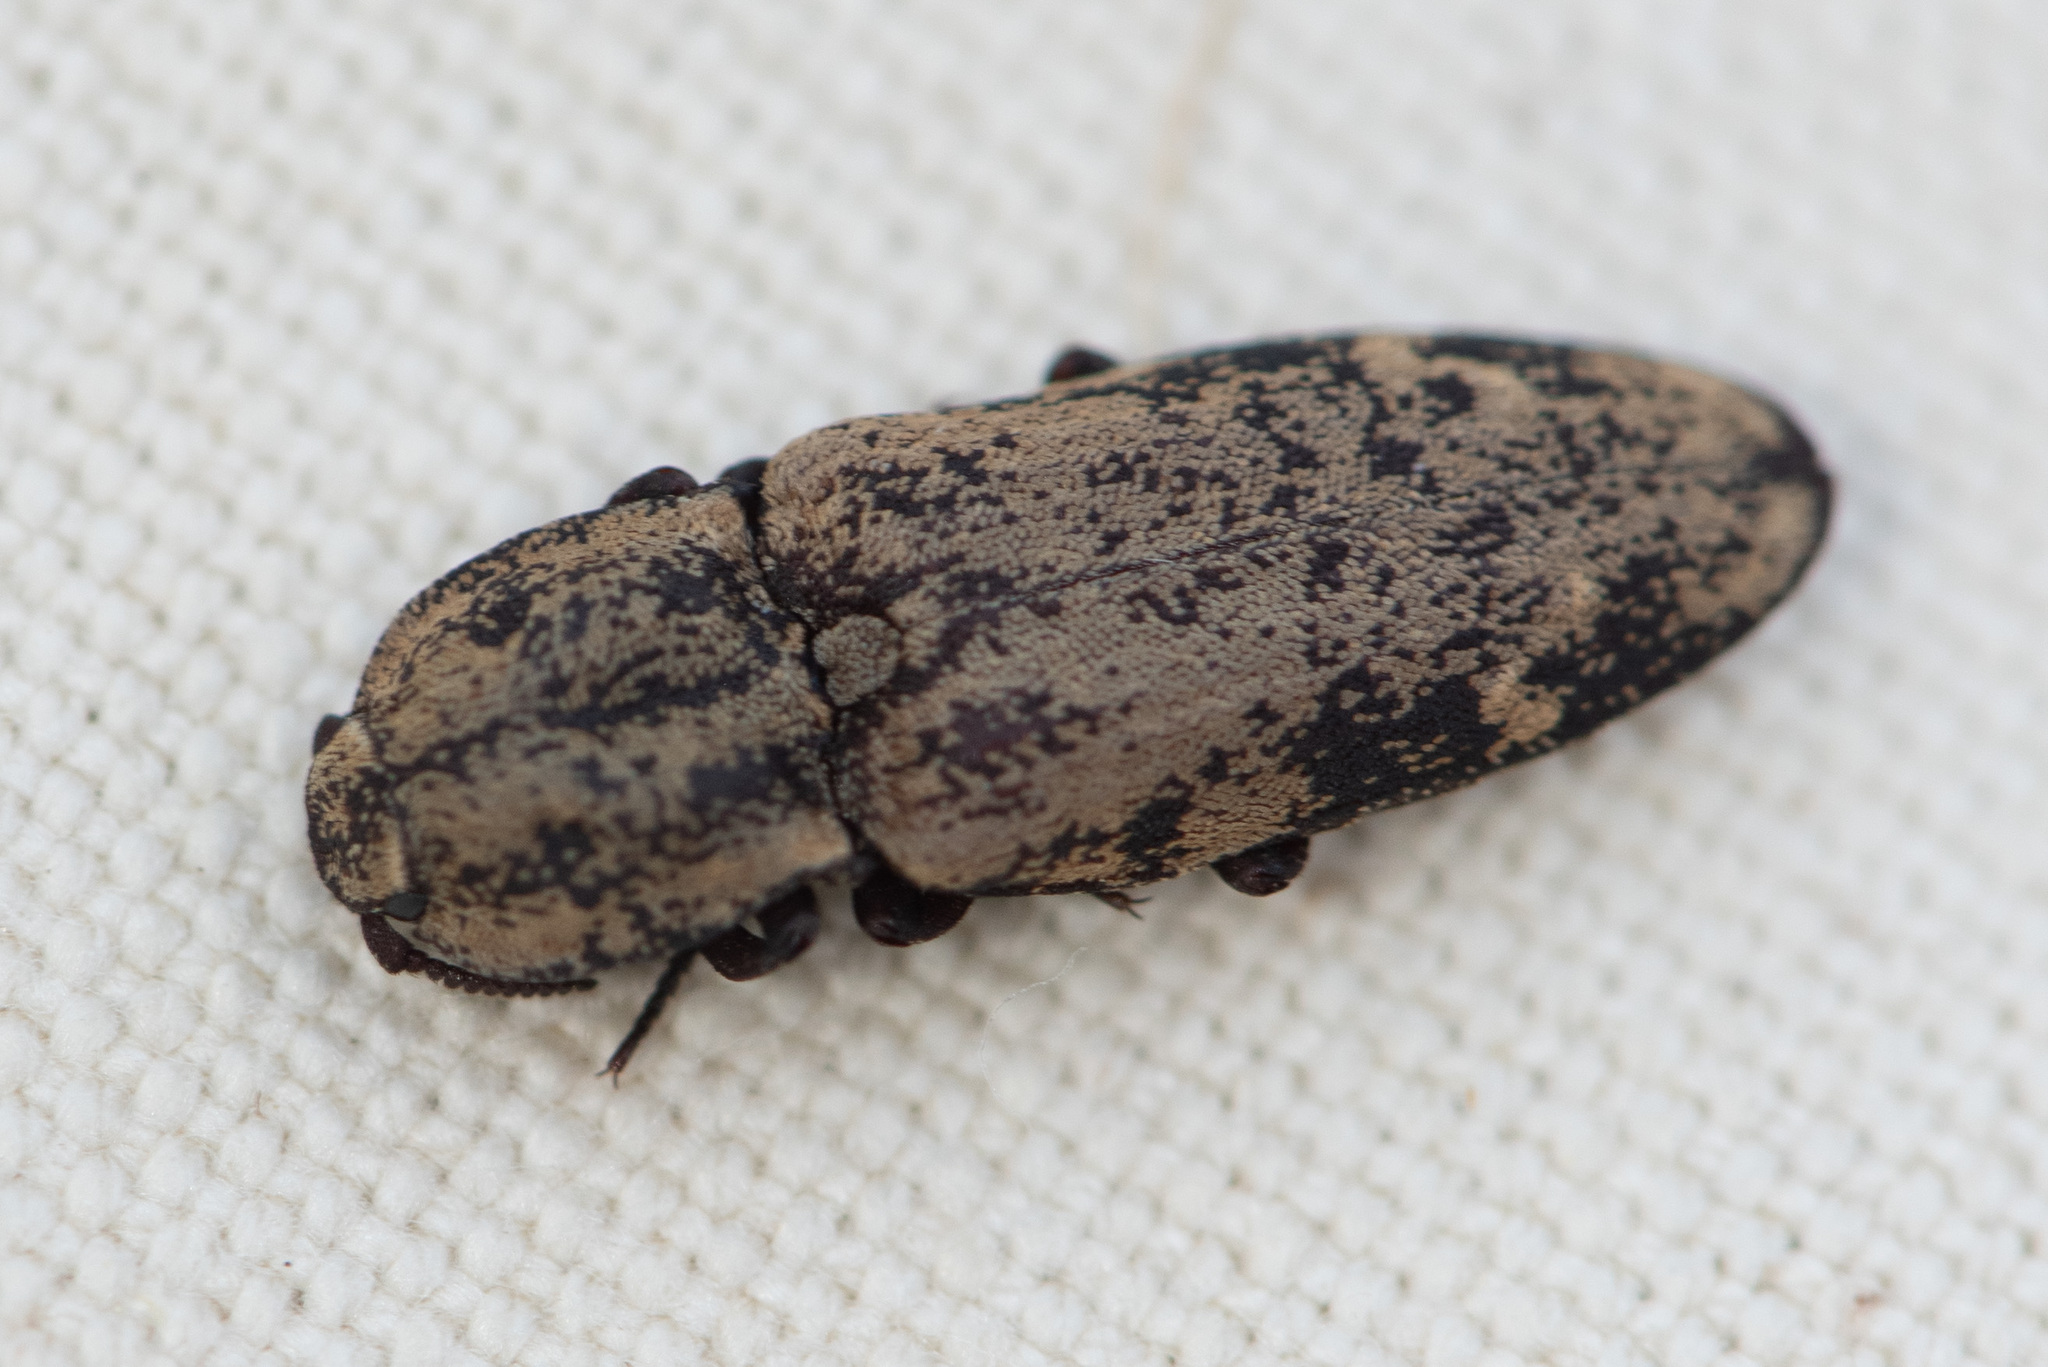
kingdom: Animalia
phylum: Arthropoda
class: Insecta
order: Coleoptera
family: Elateridae
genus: Danosoma
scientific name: Danosoma brevicorne
